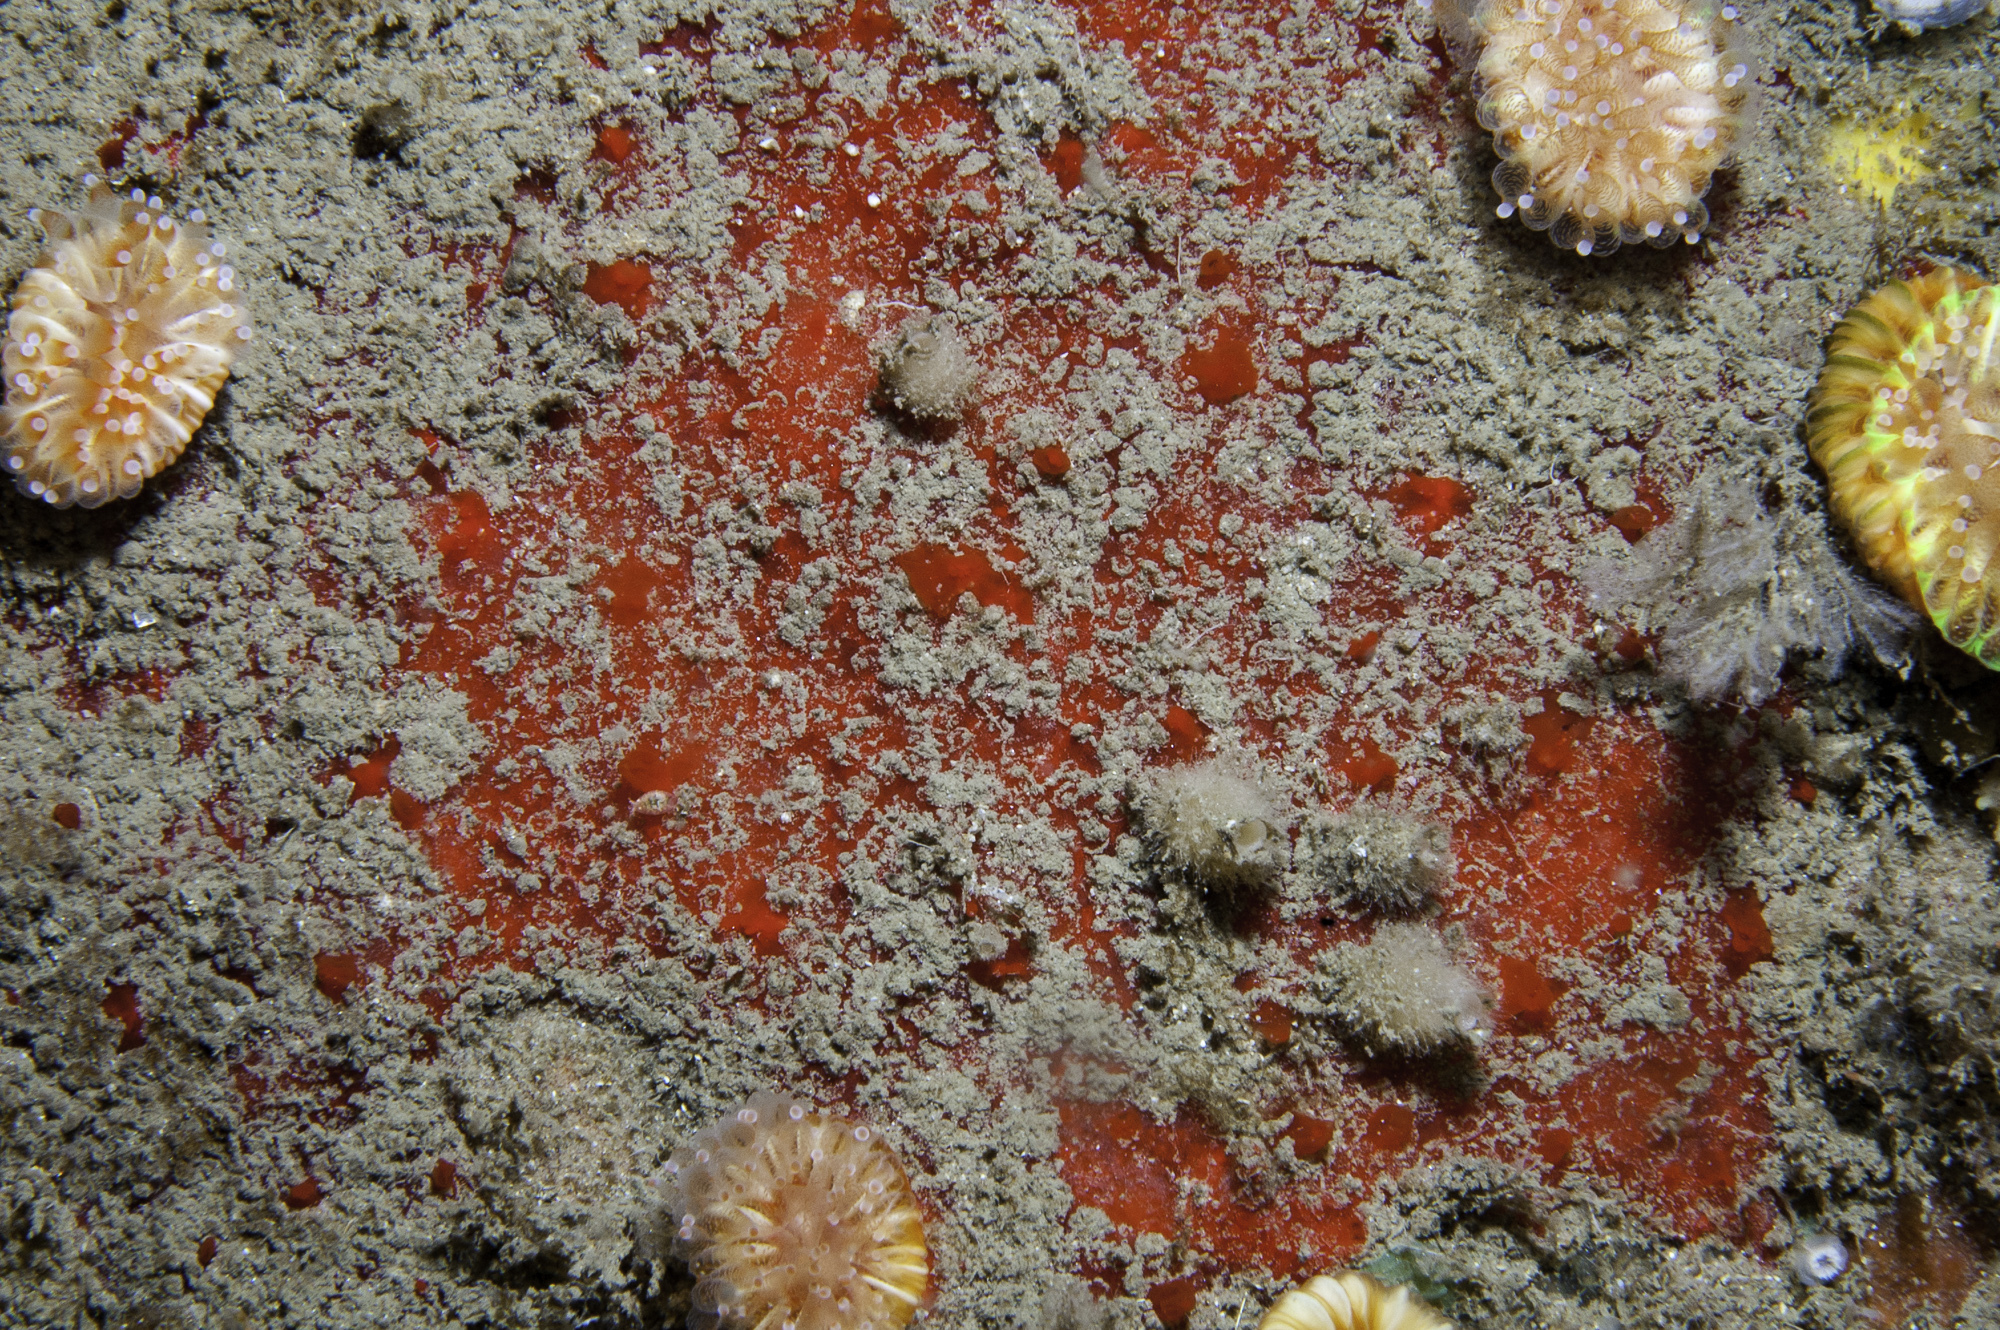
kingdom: Animalia
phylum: Porifera
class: Demospongiae
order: Axinellida
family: Raspailiidae
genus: Eurypon
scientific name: Eurypon major
